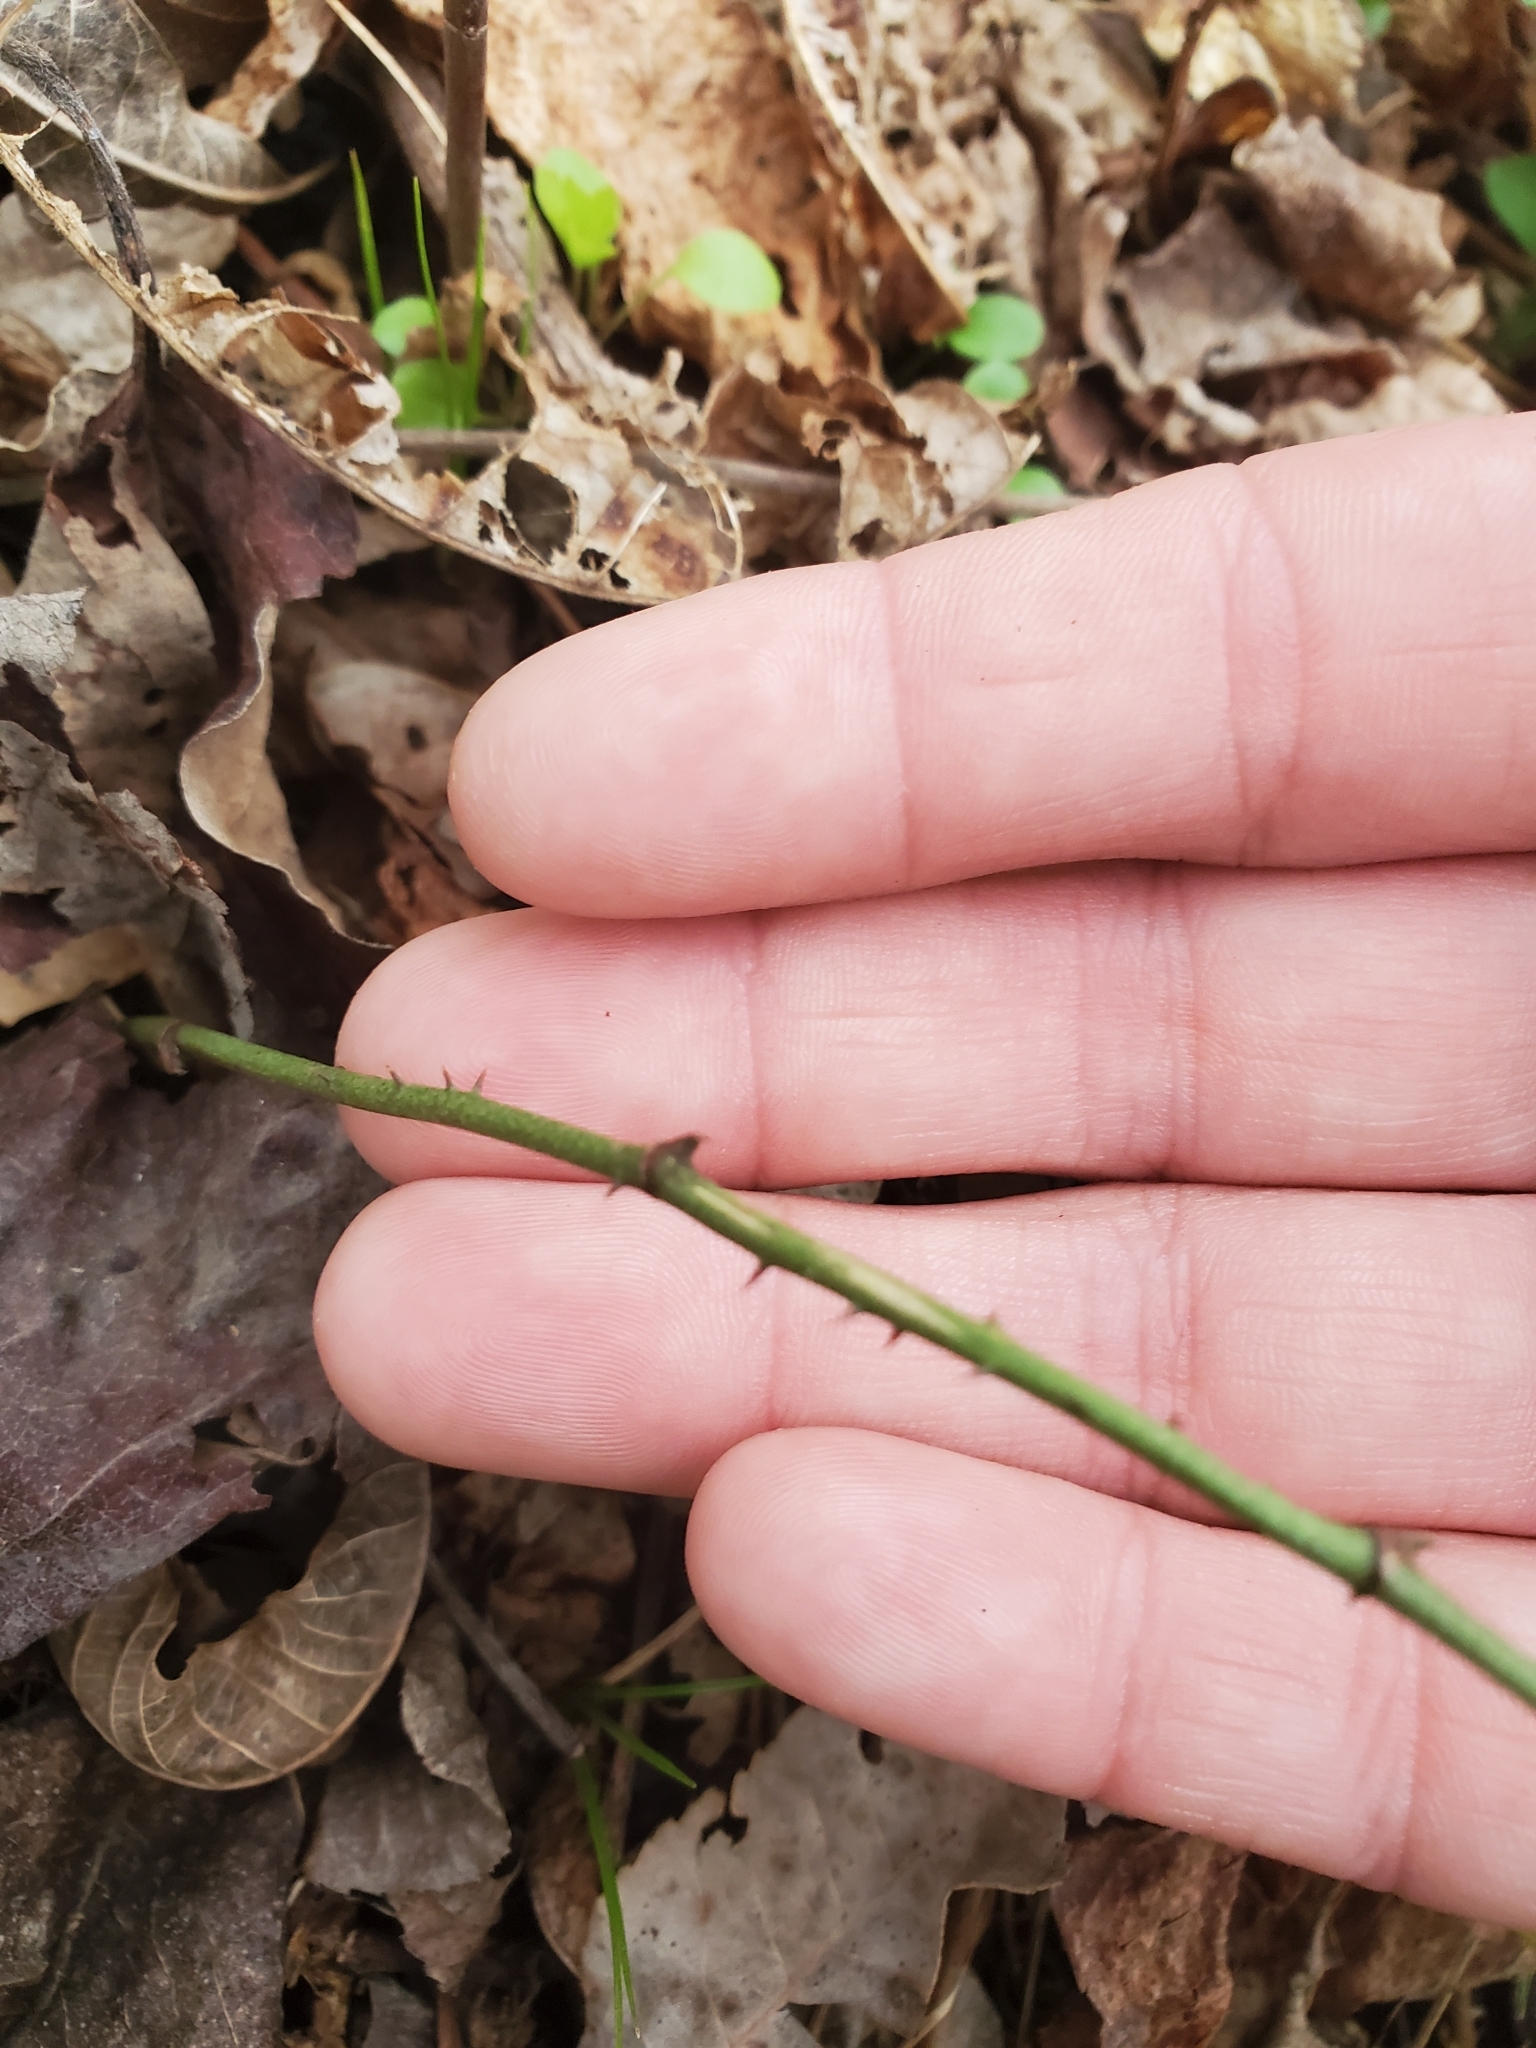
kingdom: Plantae
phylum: Tracheophyta
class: Liliopsida
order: Liliales
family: Smilacaceae
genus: Smilax
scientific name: Smilax maritima
